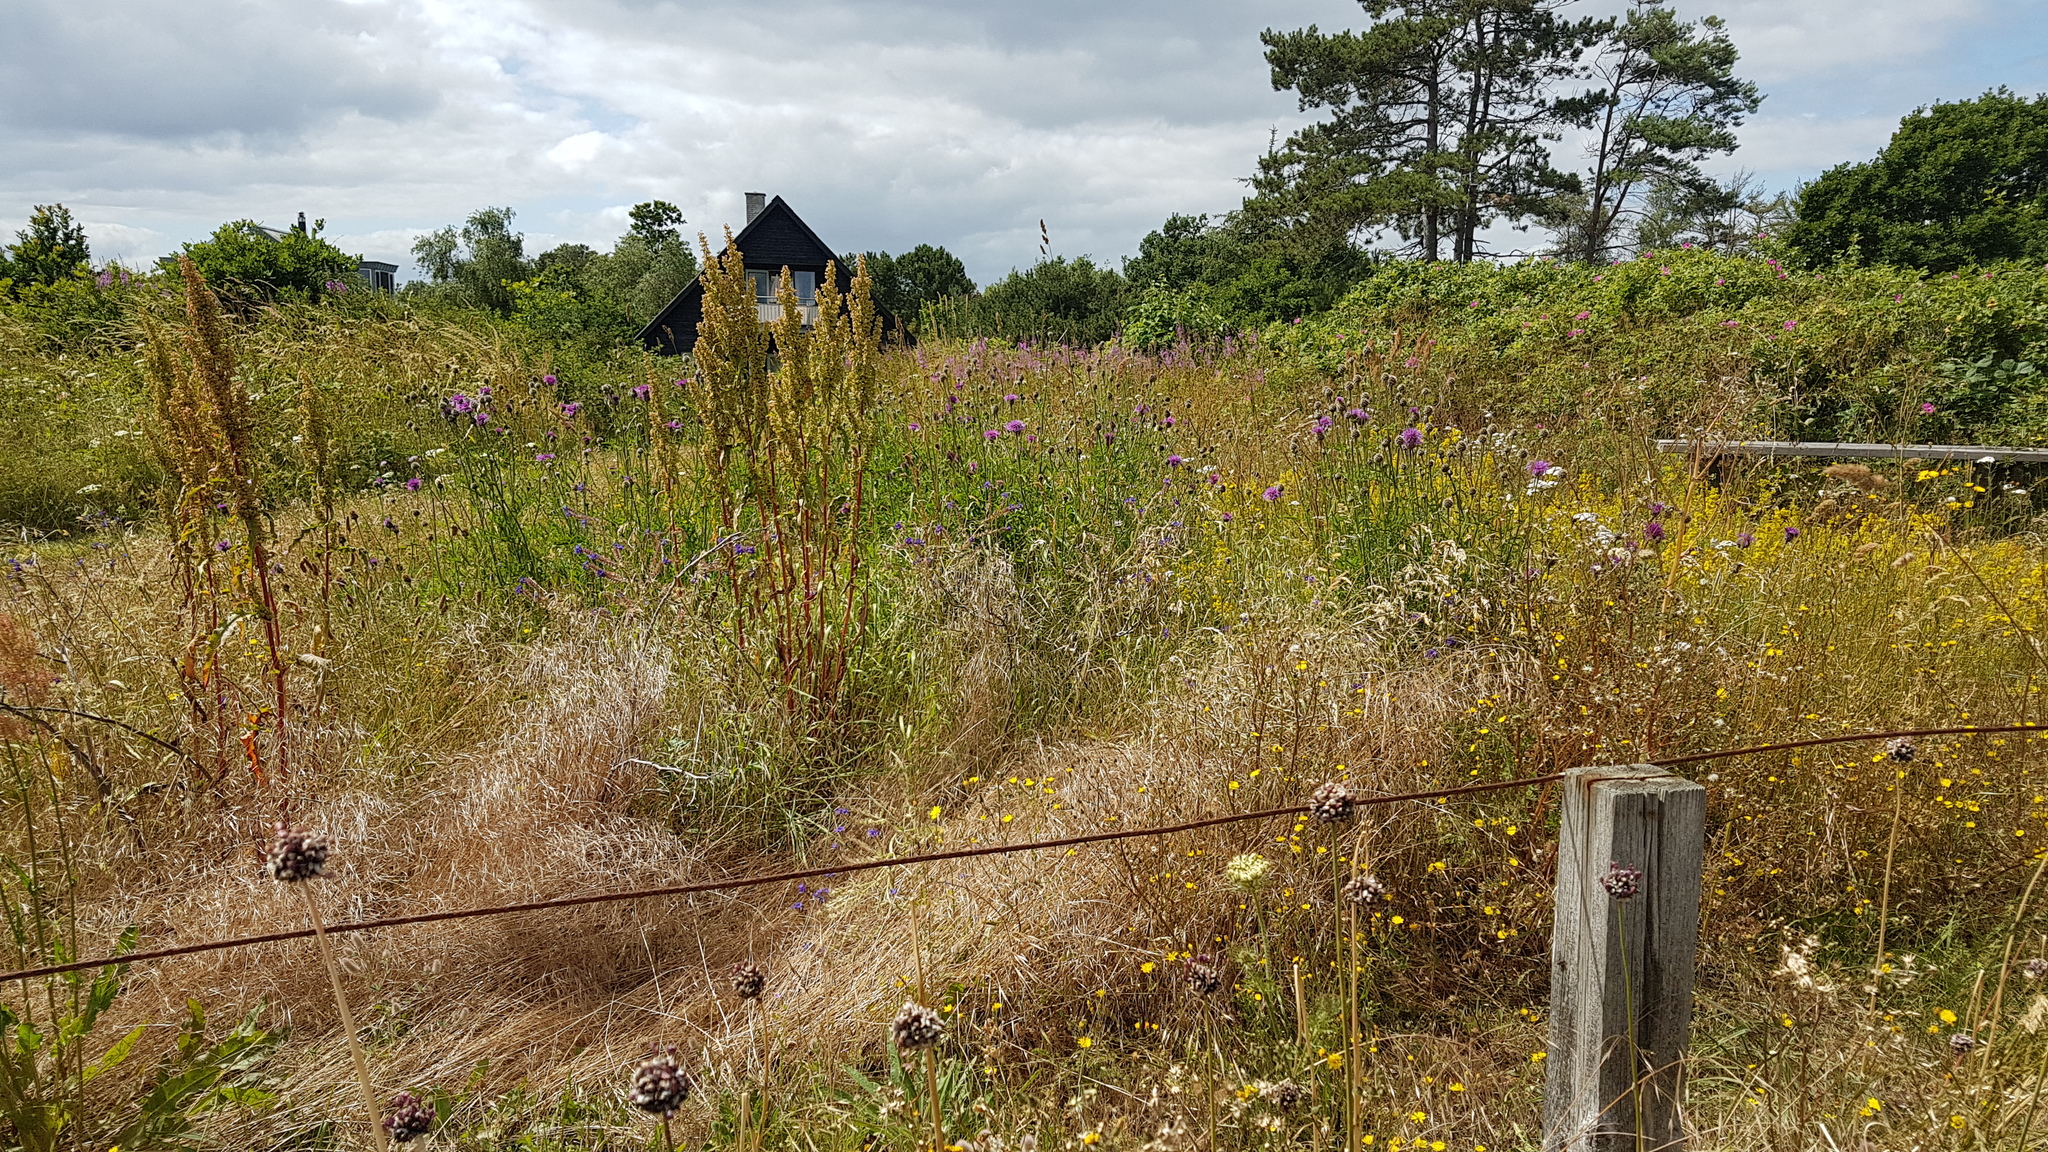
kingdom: Plantae
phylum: Tracheophyta
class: Magnoliopsida
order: Asterales
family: Asteraceae
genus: Centaurea
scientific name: Centaurea scabiosa
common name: Greater knapweed
